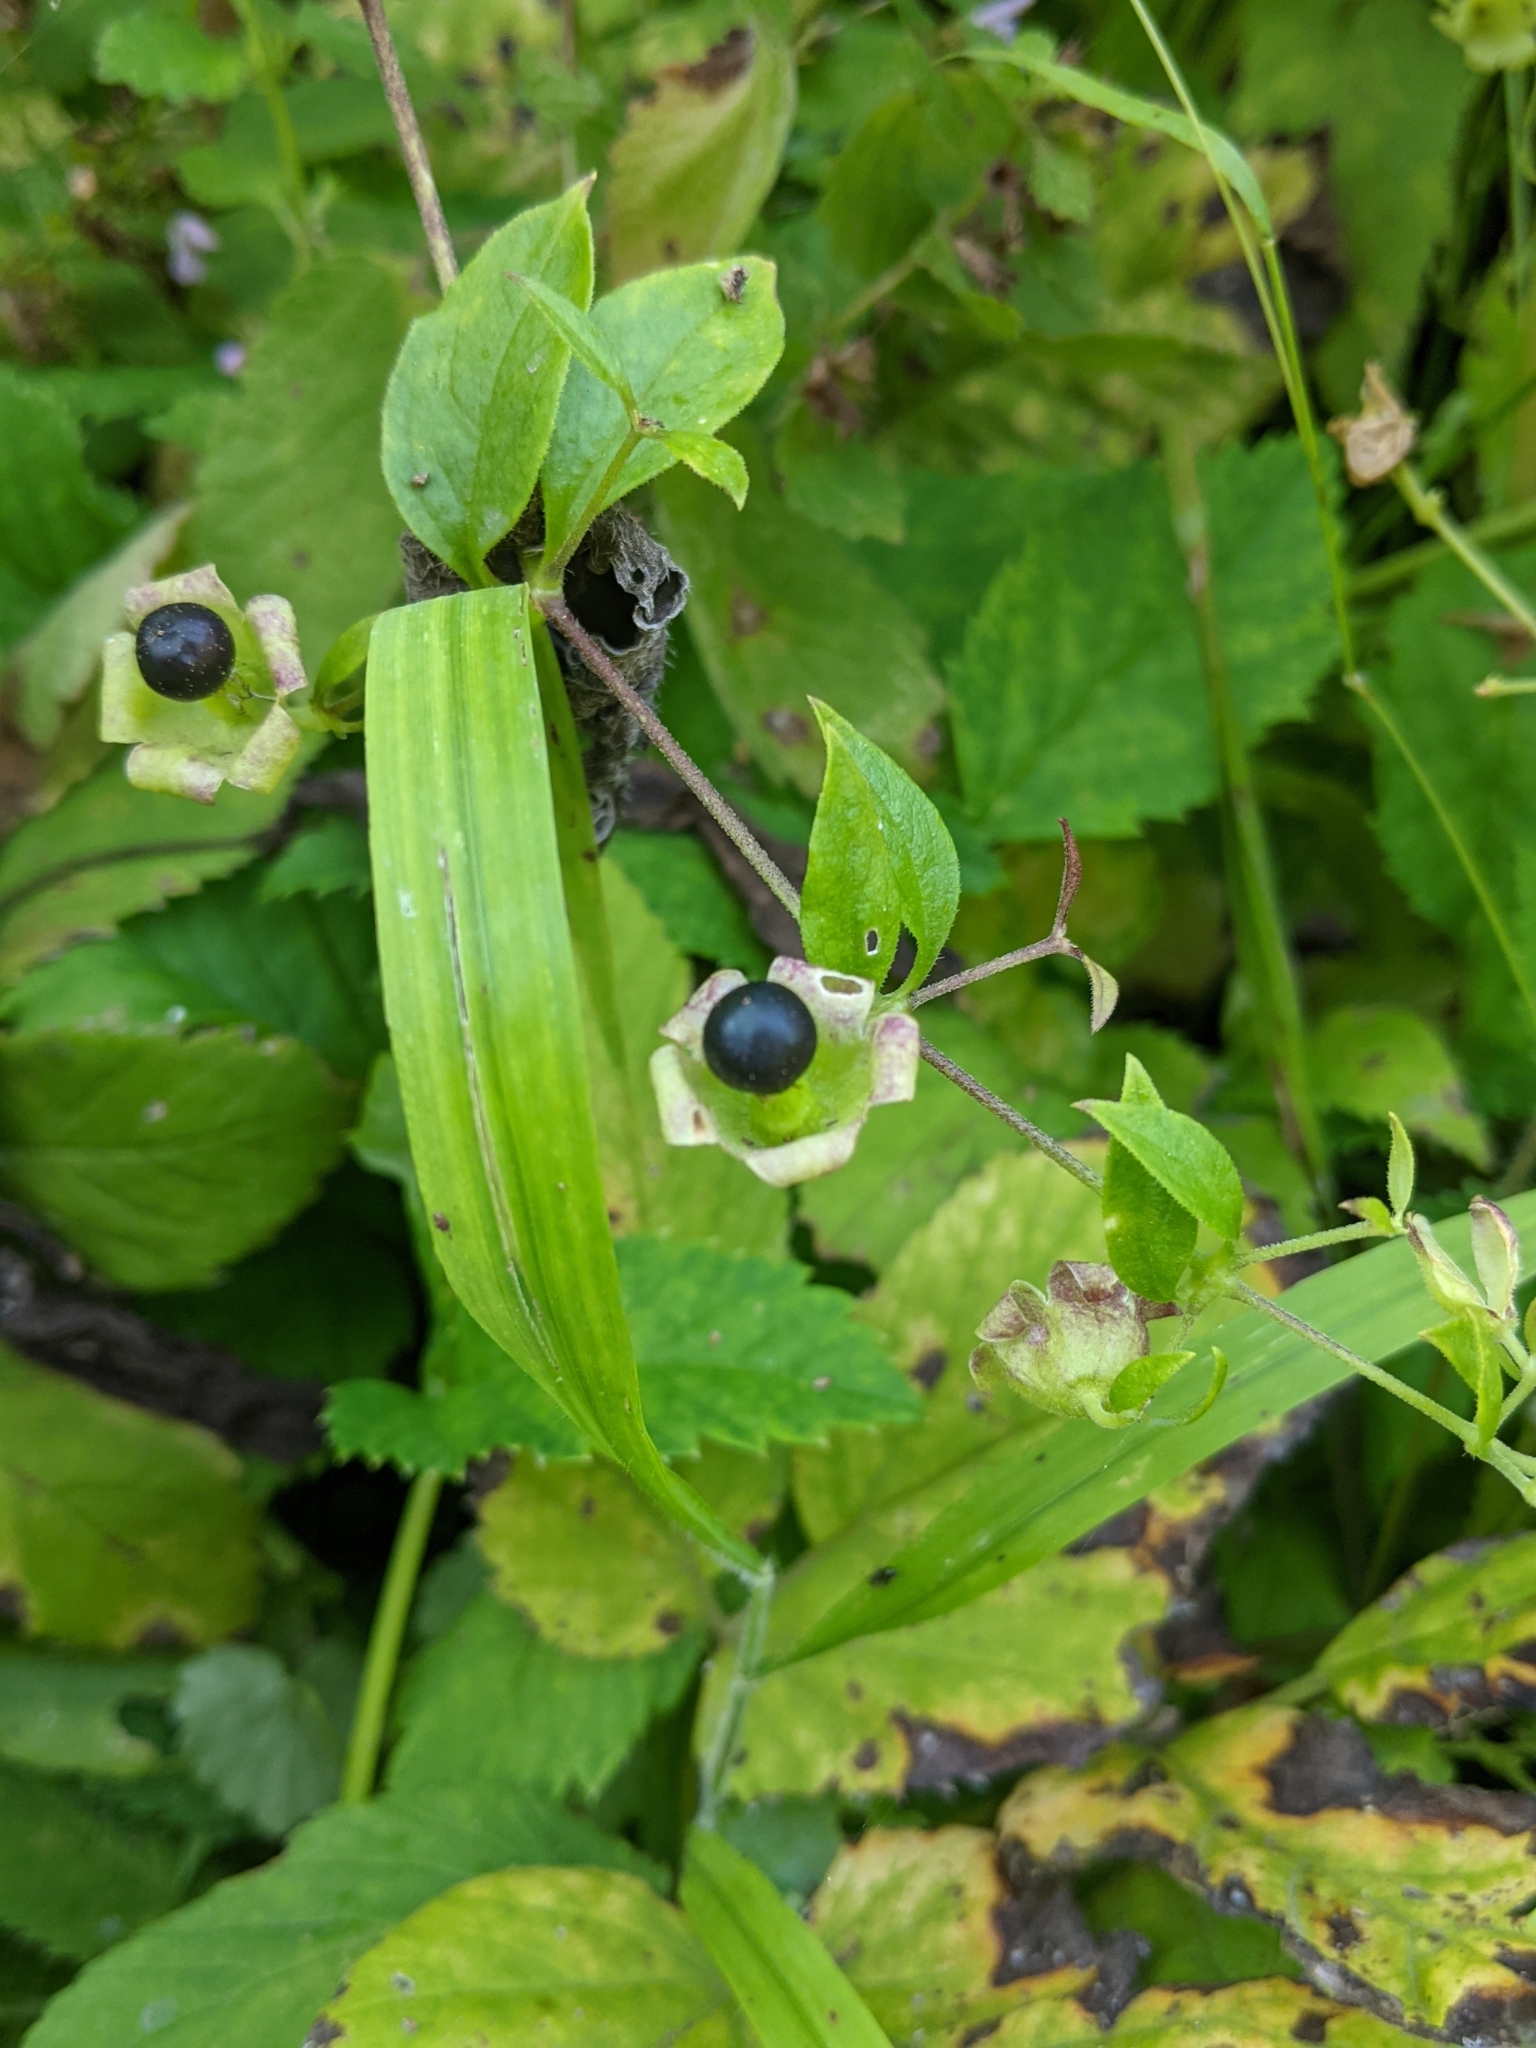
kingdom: Plantae
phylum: Tracheophyta
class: Magnoliopsida
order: Caryophyllales
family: Caryophyllaceae
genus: Silene
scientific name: Silene baccifera
